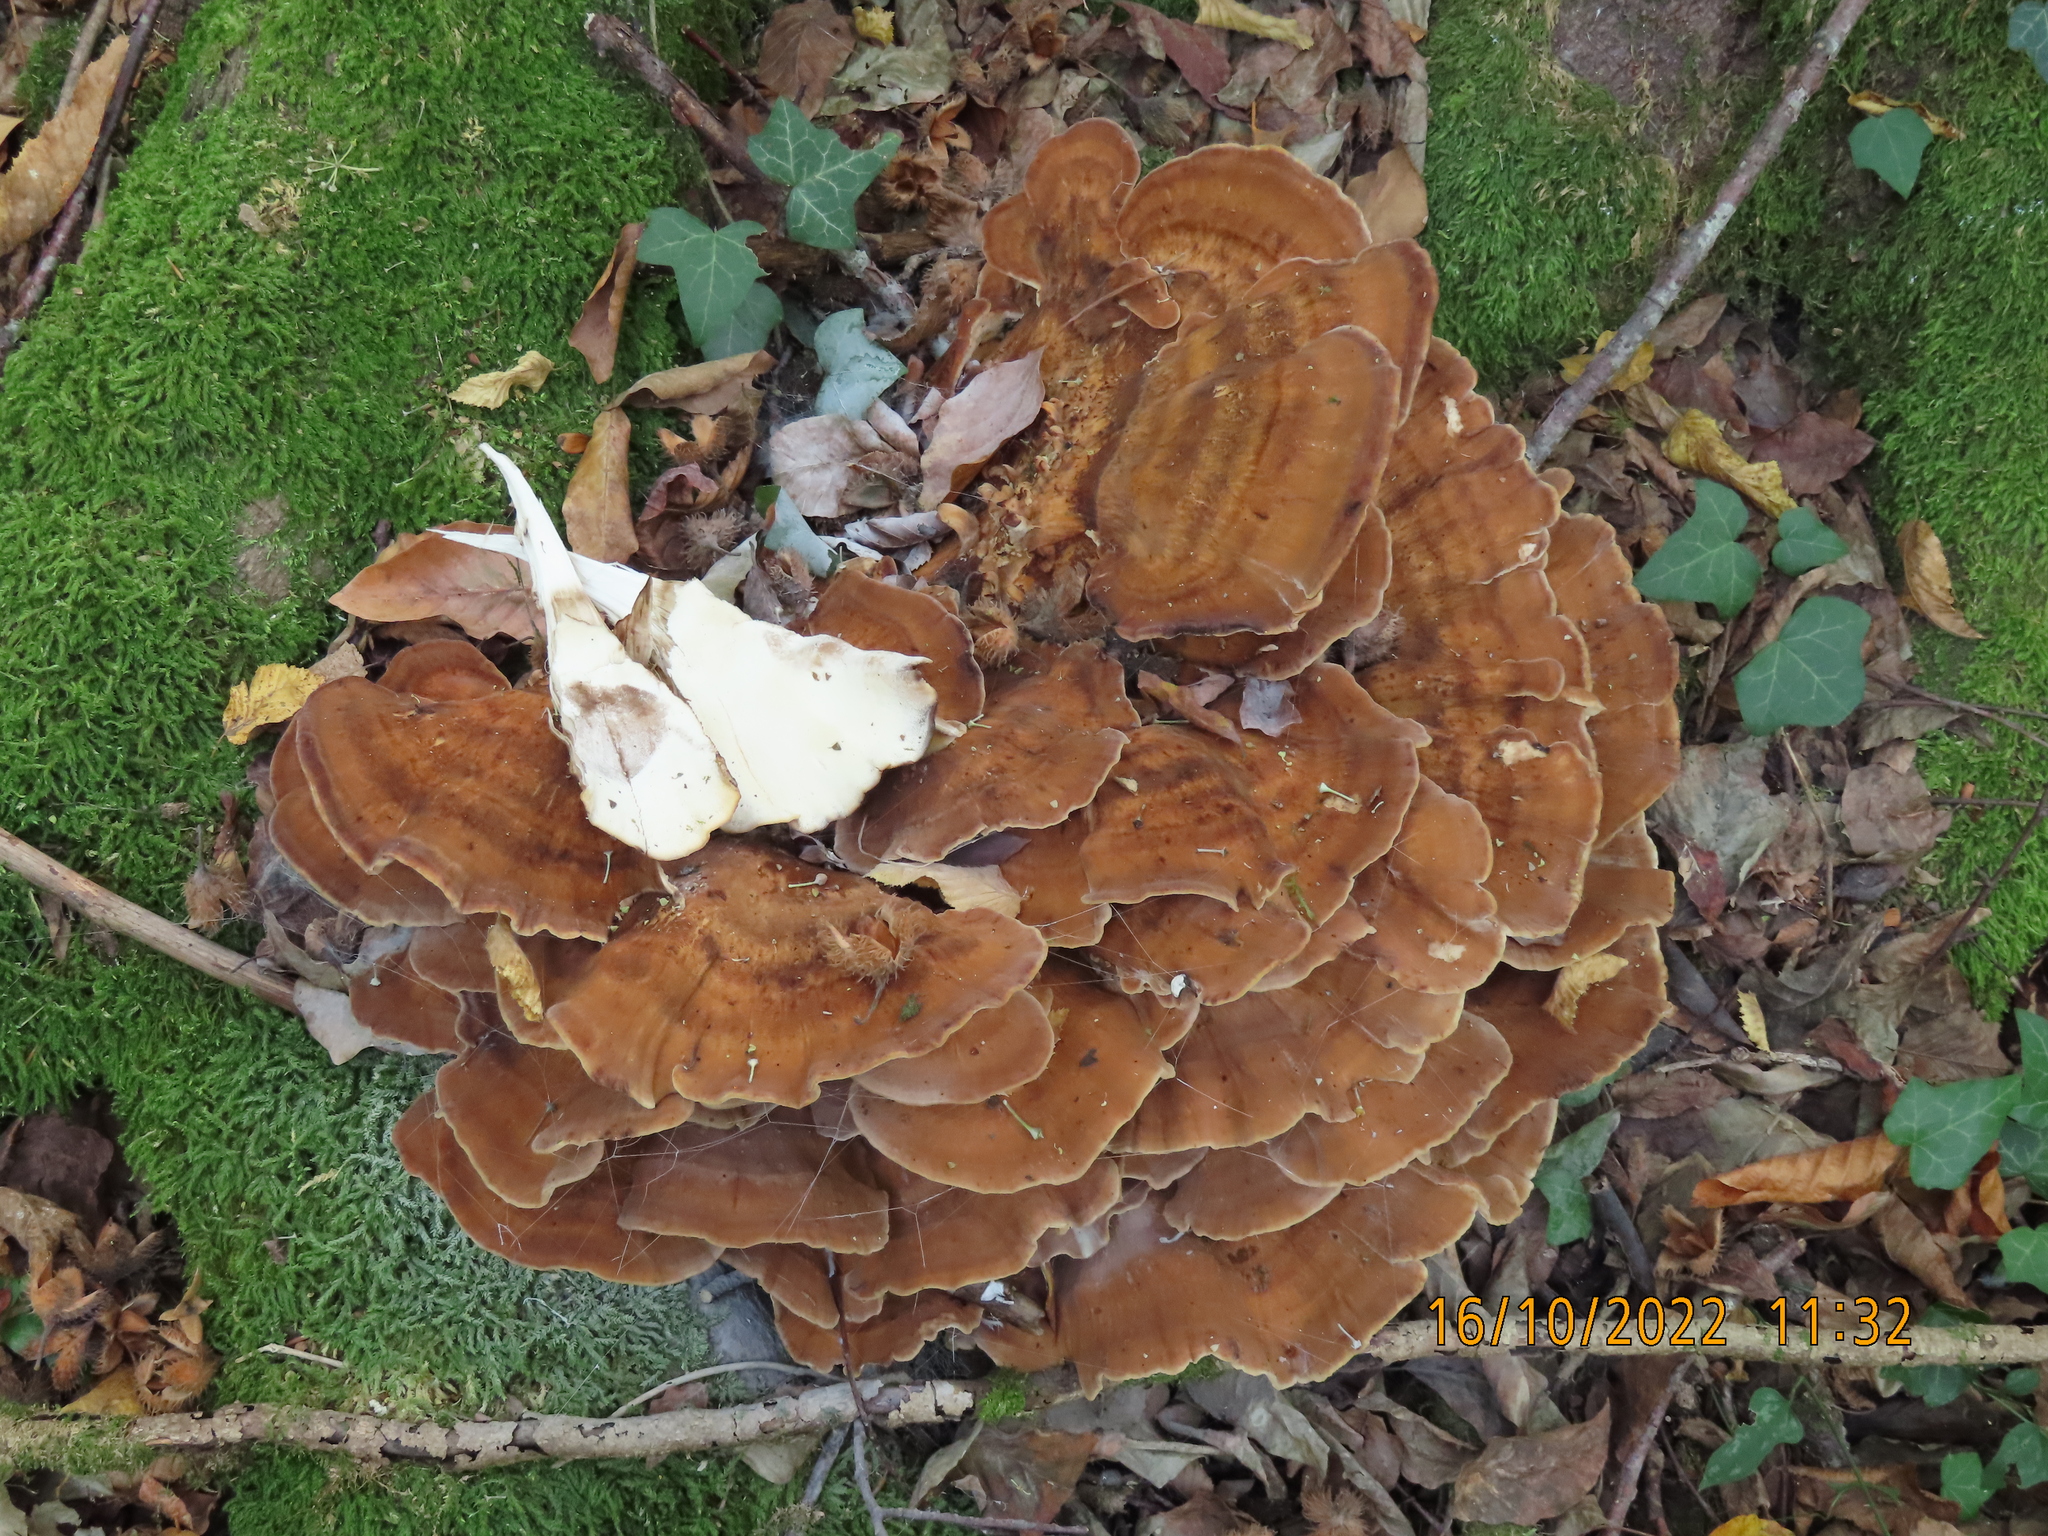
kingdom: Fungi
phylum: Basidiomycota
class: Agaricomycetes
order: Polyporales
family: Meripilaceae
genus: Meripilus
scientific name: Meripilus giganteus
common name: Giant polypore
